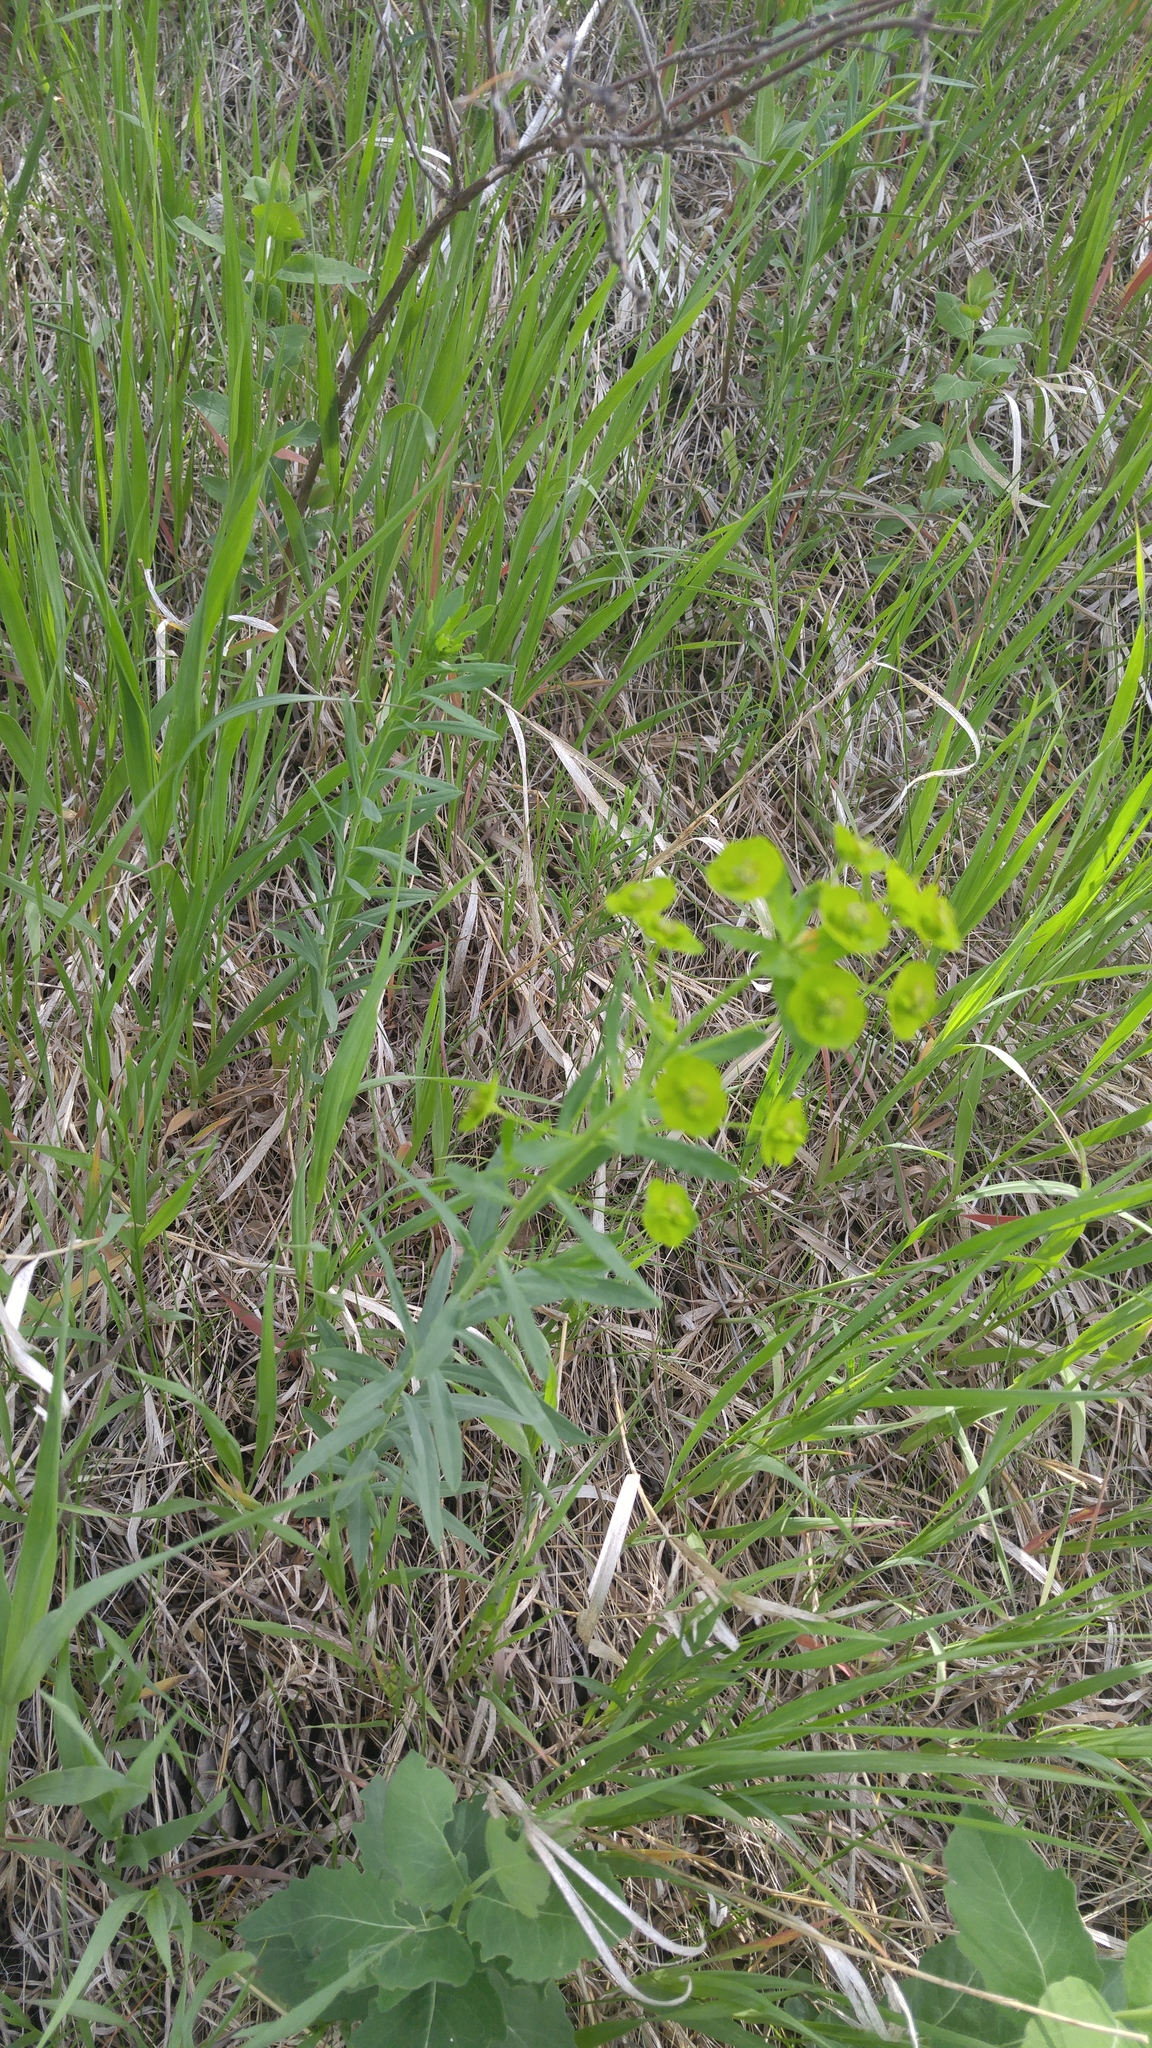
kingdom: Plantae
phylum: Tracheophyta
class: Magnoliopsida
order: Malpighiales
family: Euphorbiaceae
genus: Euphorbia
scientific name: Euphorbia virgata
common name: Leafy spurge
